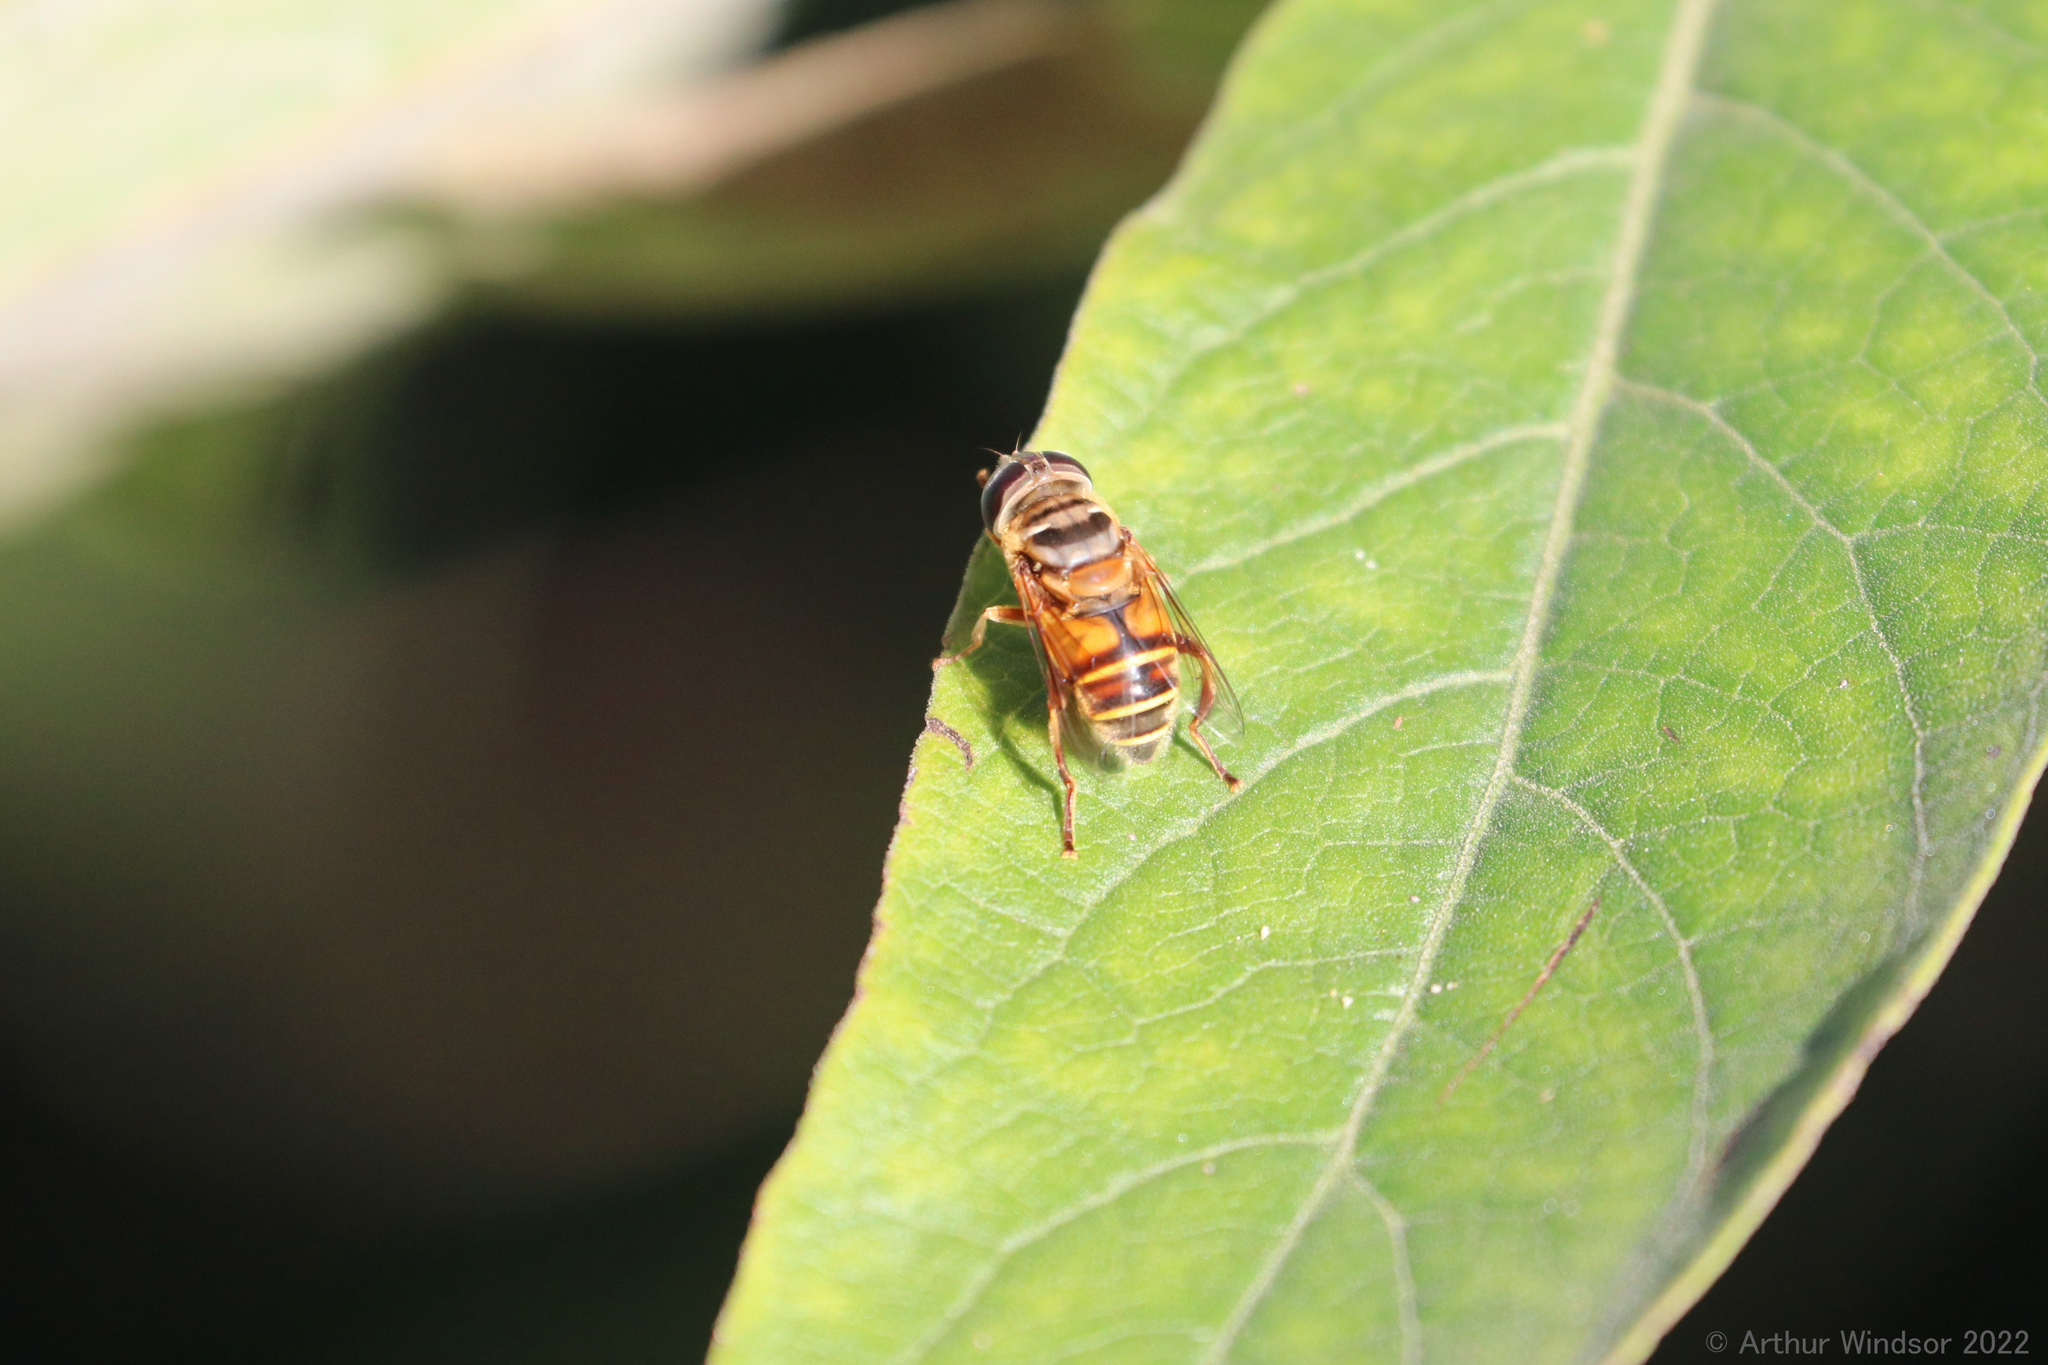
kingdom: Animalia
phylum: Arthropoda
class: Insecta
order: Diptera
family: Syrphidae
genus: Palpada
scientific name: Palpada vinetorum
